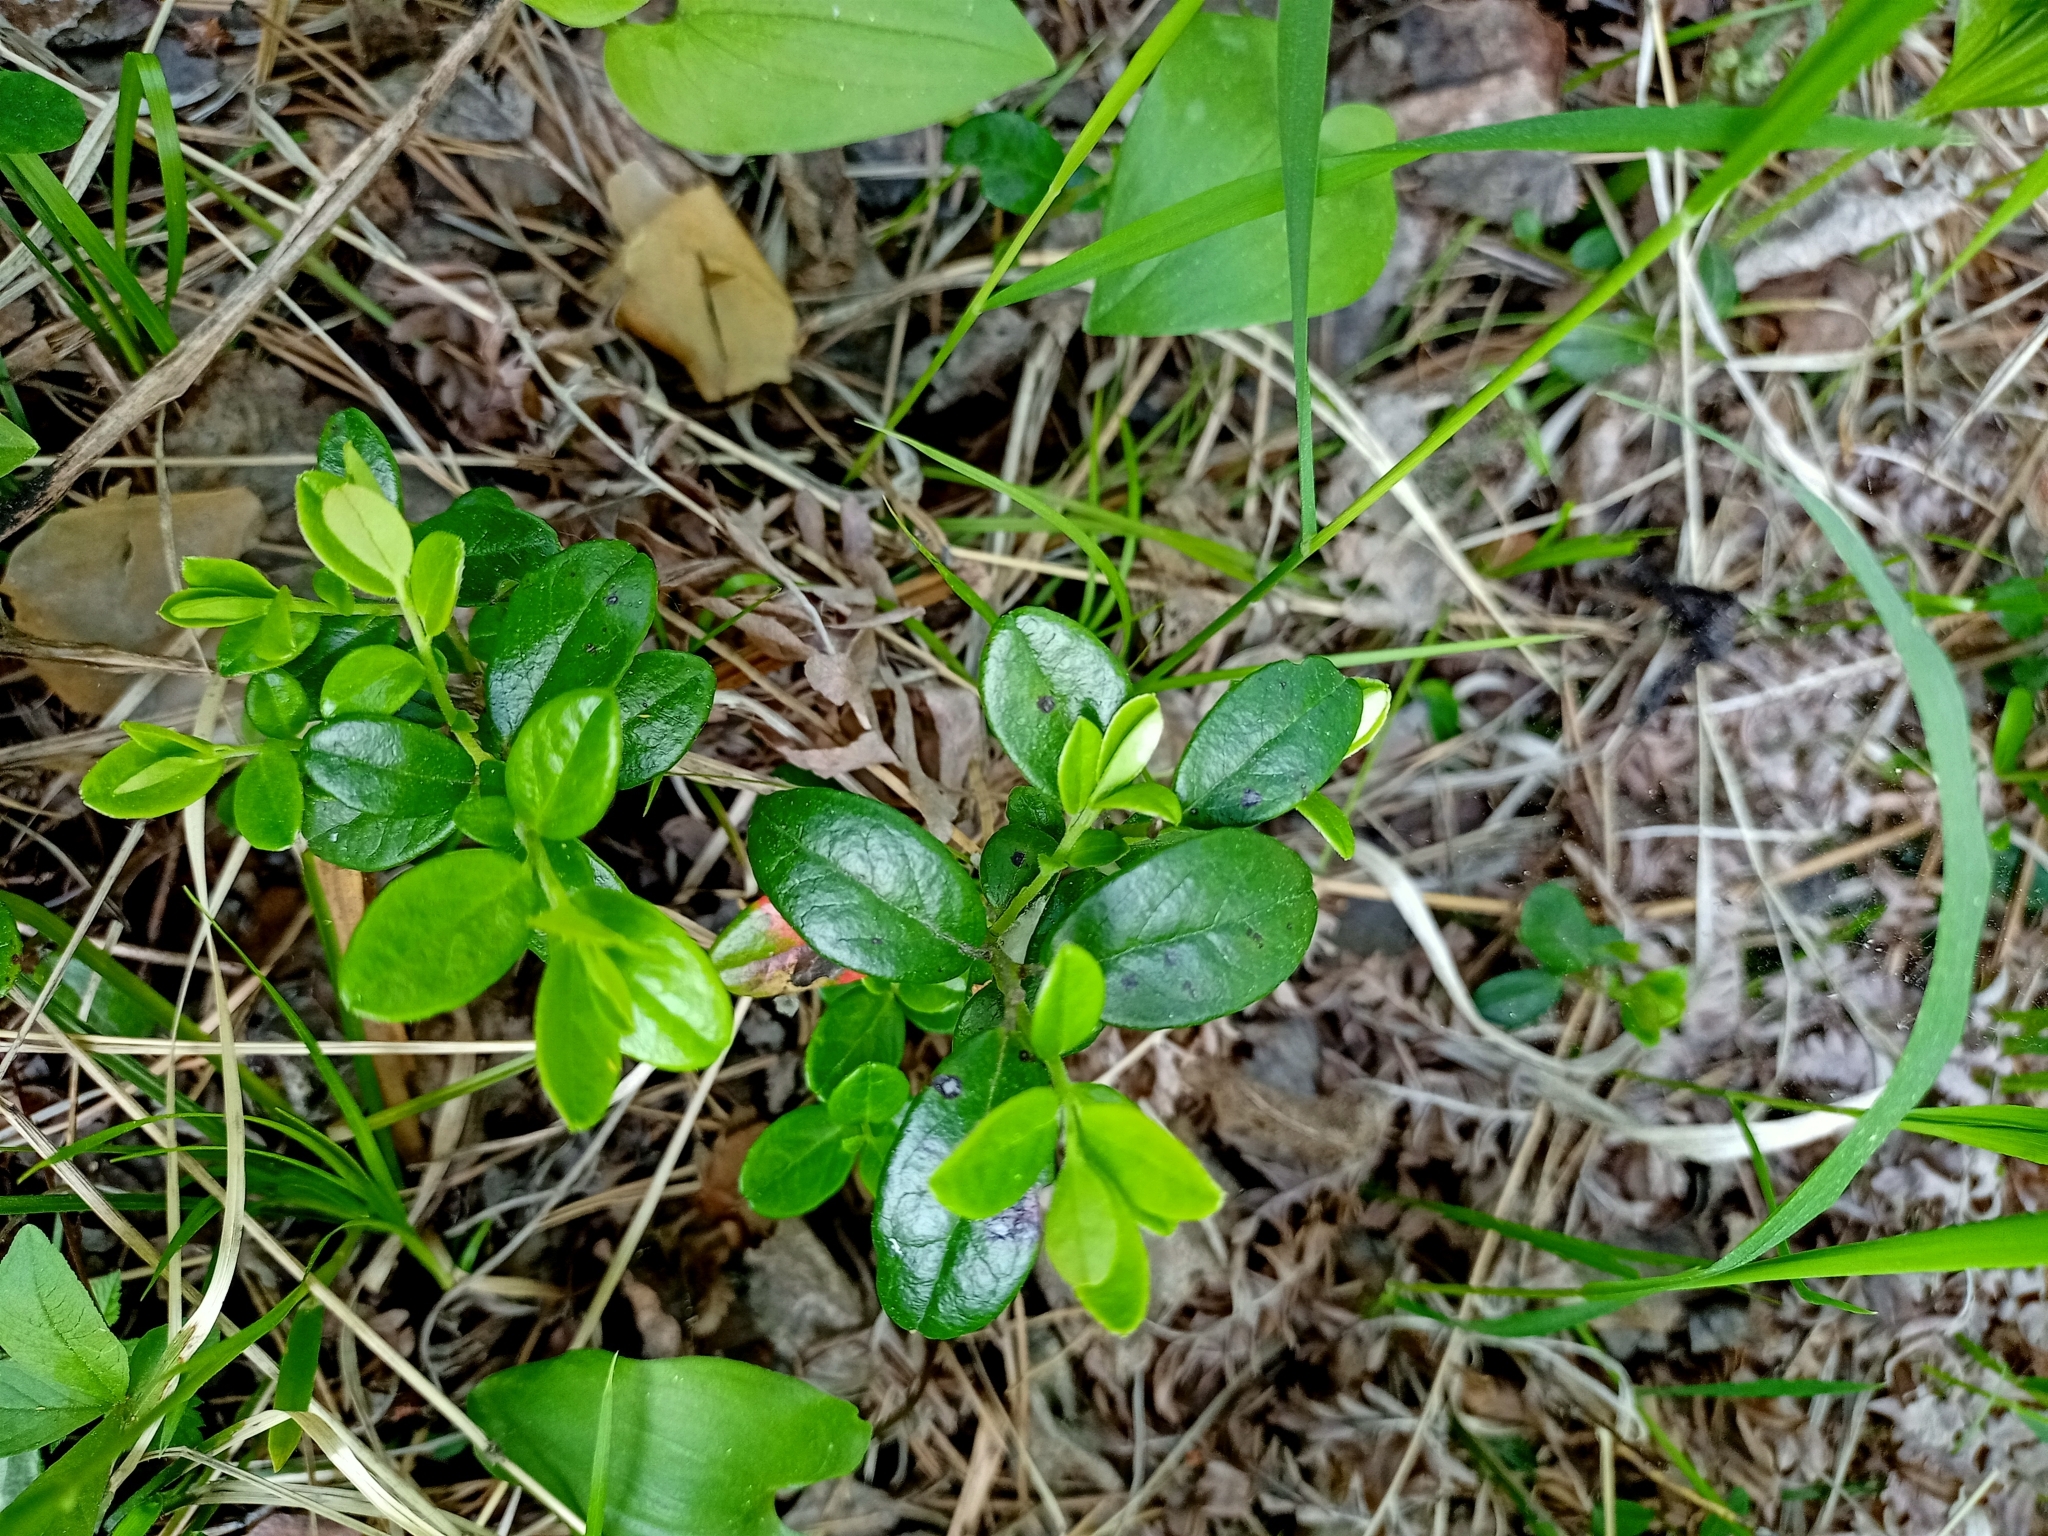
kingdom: Plantae
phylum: Tracheophyta
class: Magnoliopsida
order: Ericales
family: Ericaceae
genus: Vaccinium
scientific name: Vaccinium vitis-idaea
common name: Cowberry
